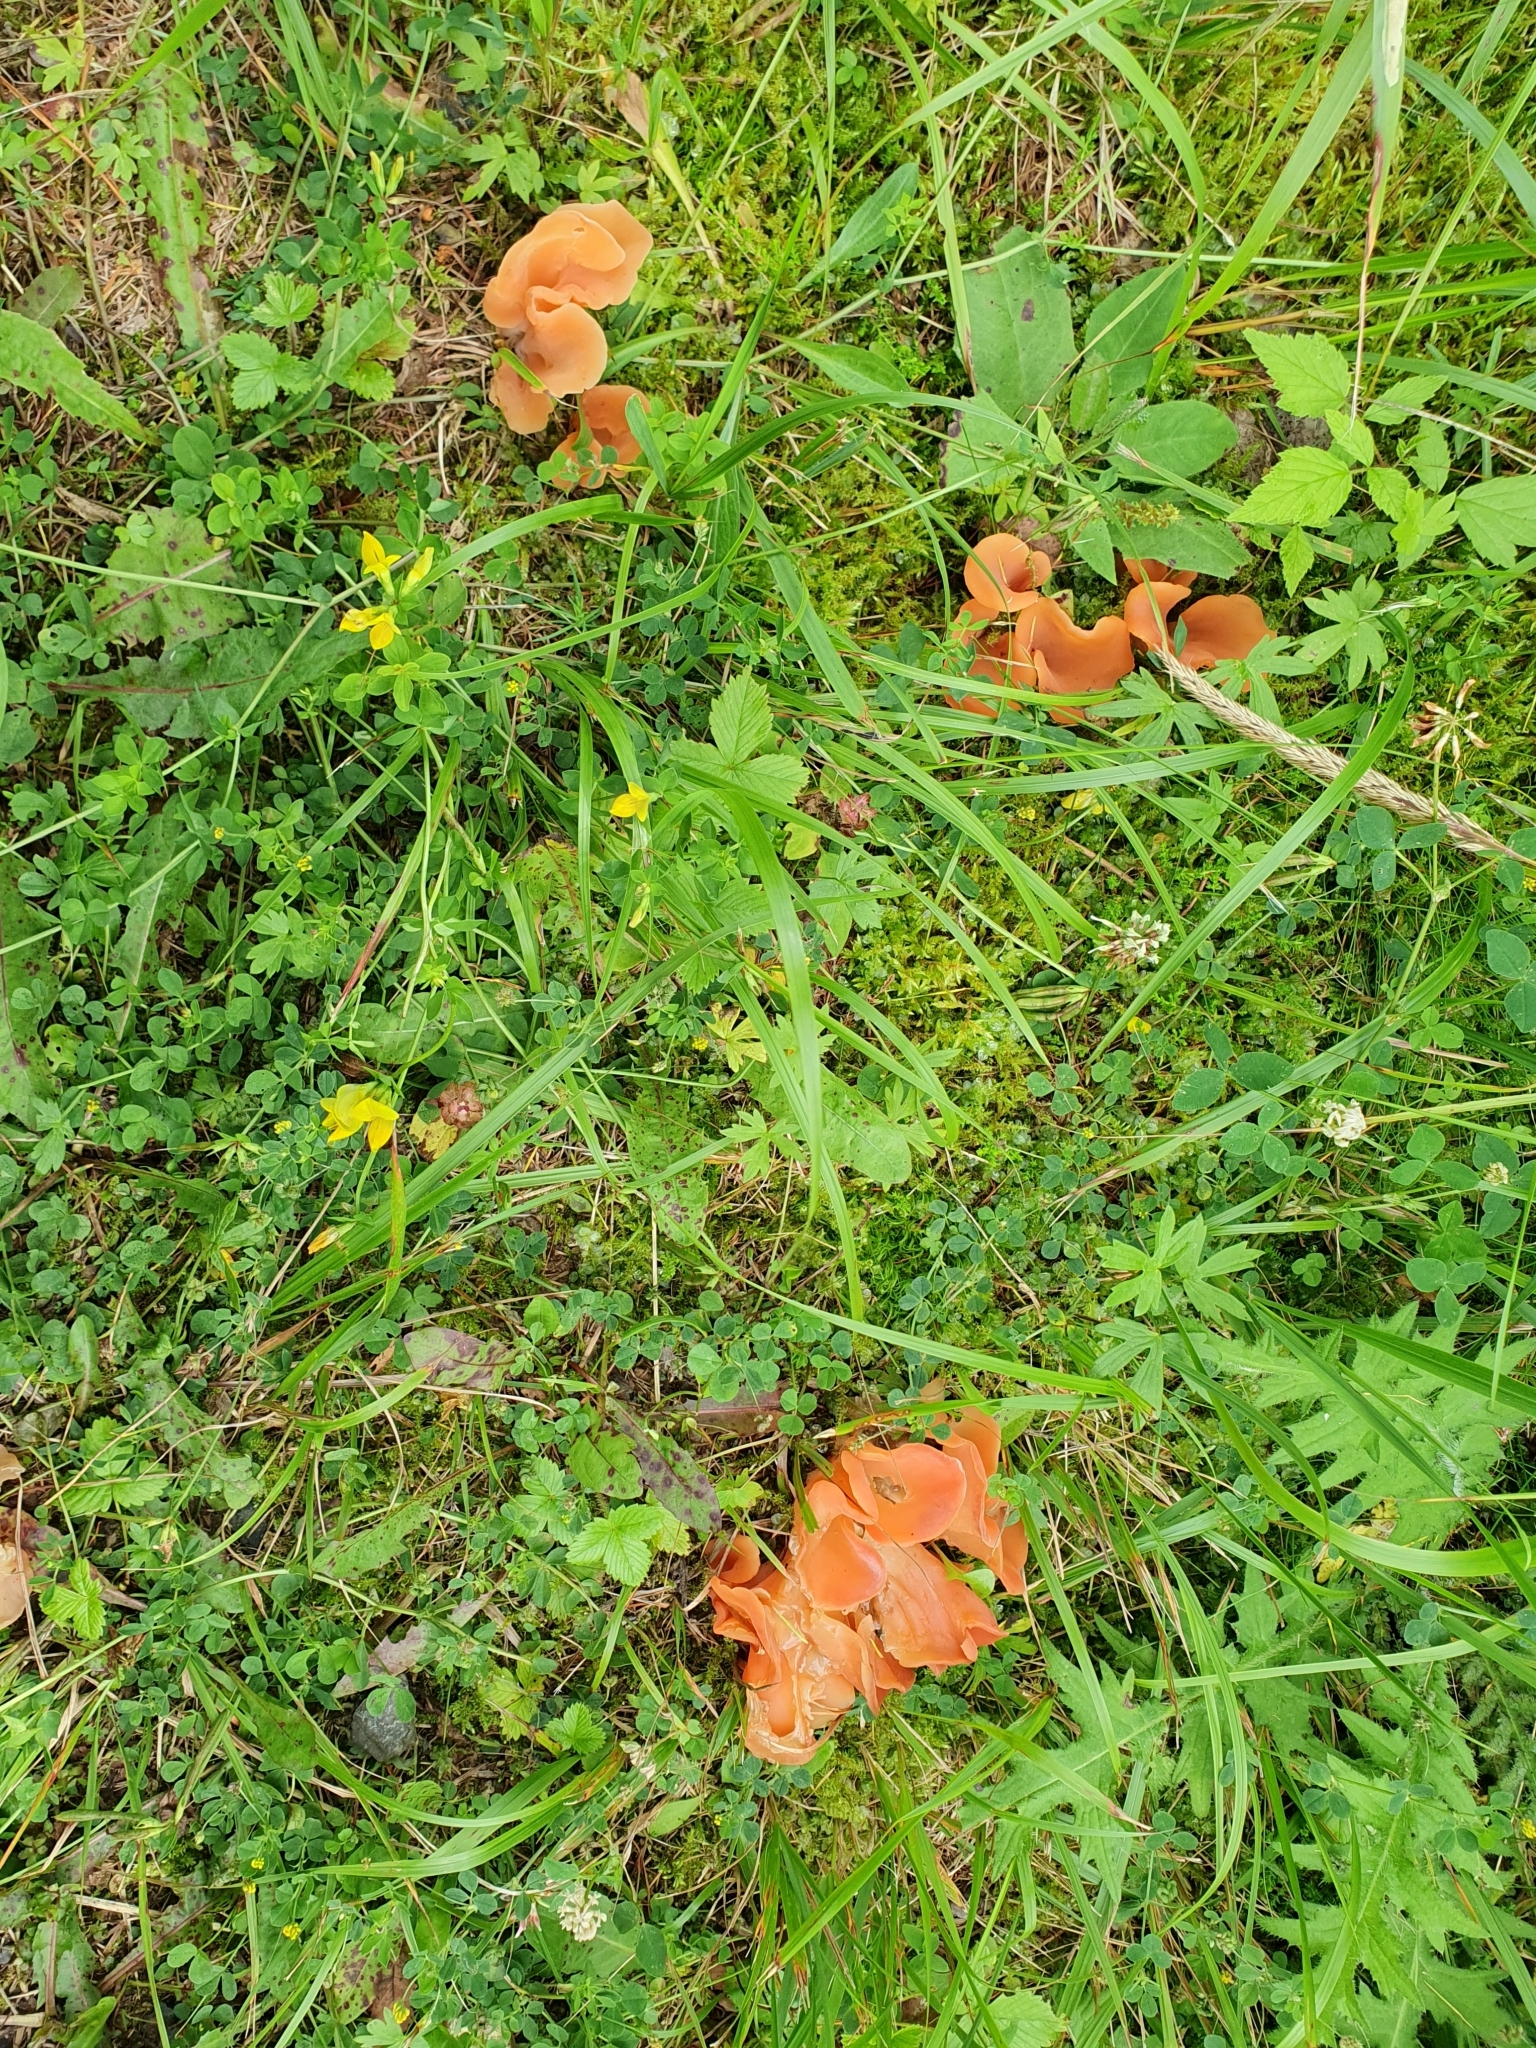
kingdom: Fungi
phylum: Basidiomycota
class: Agaricomycetes
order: Auriculariales
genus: Guepinia
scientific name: Guepinia helvelloides
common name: Salmon salad
